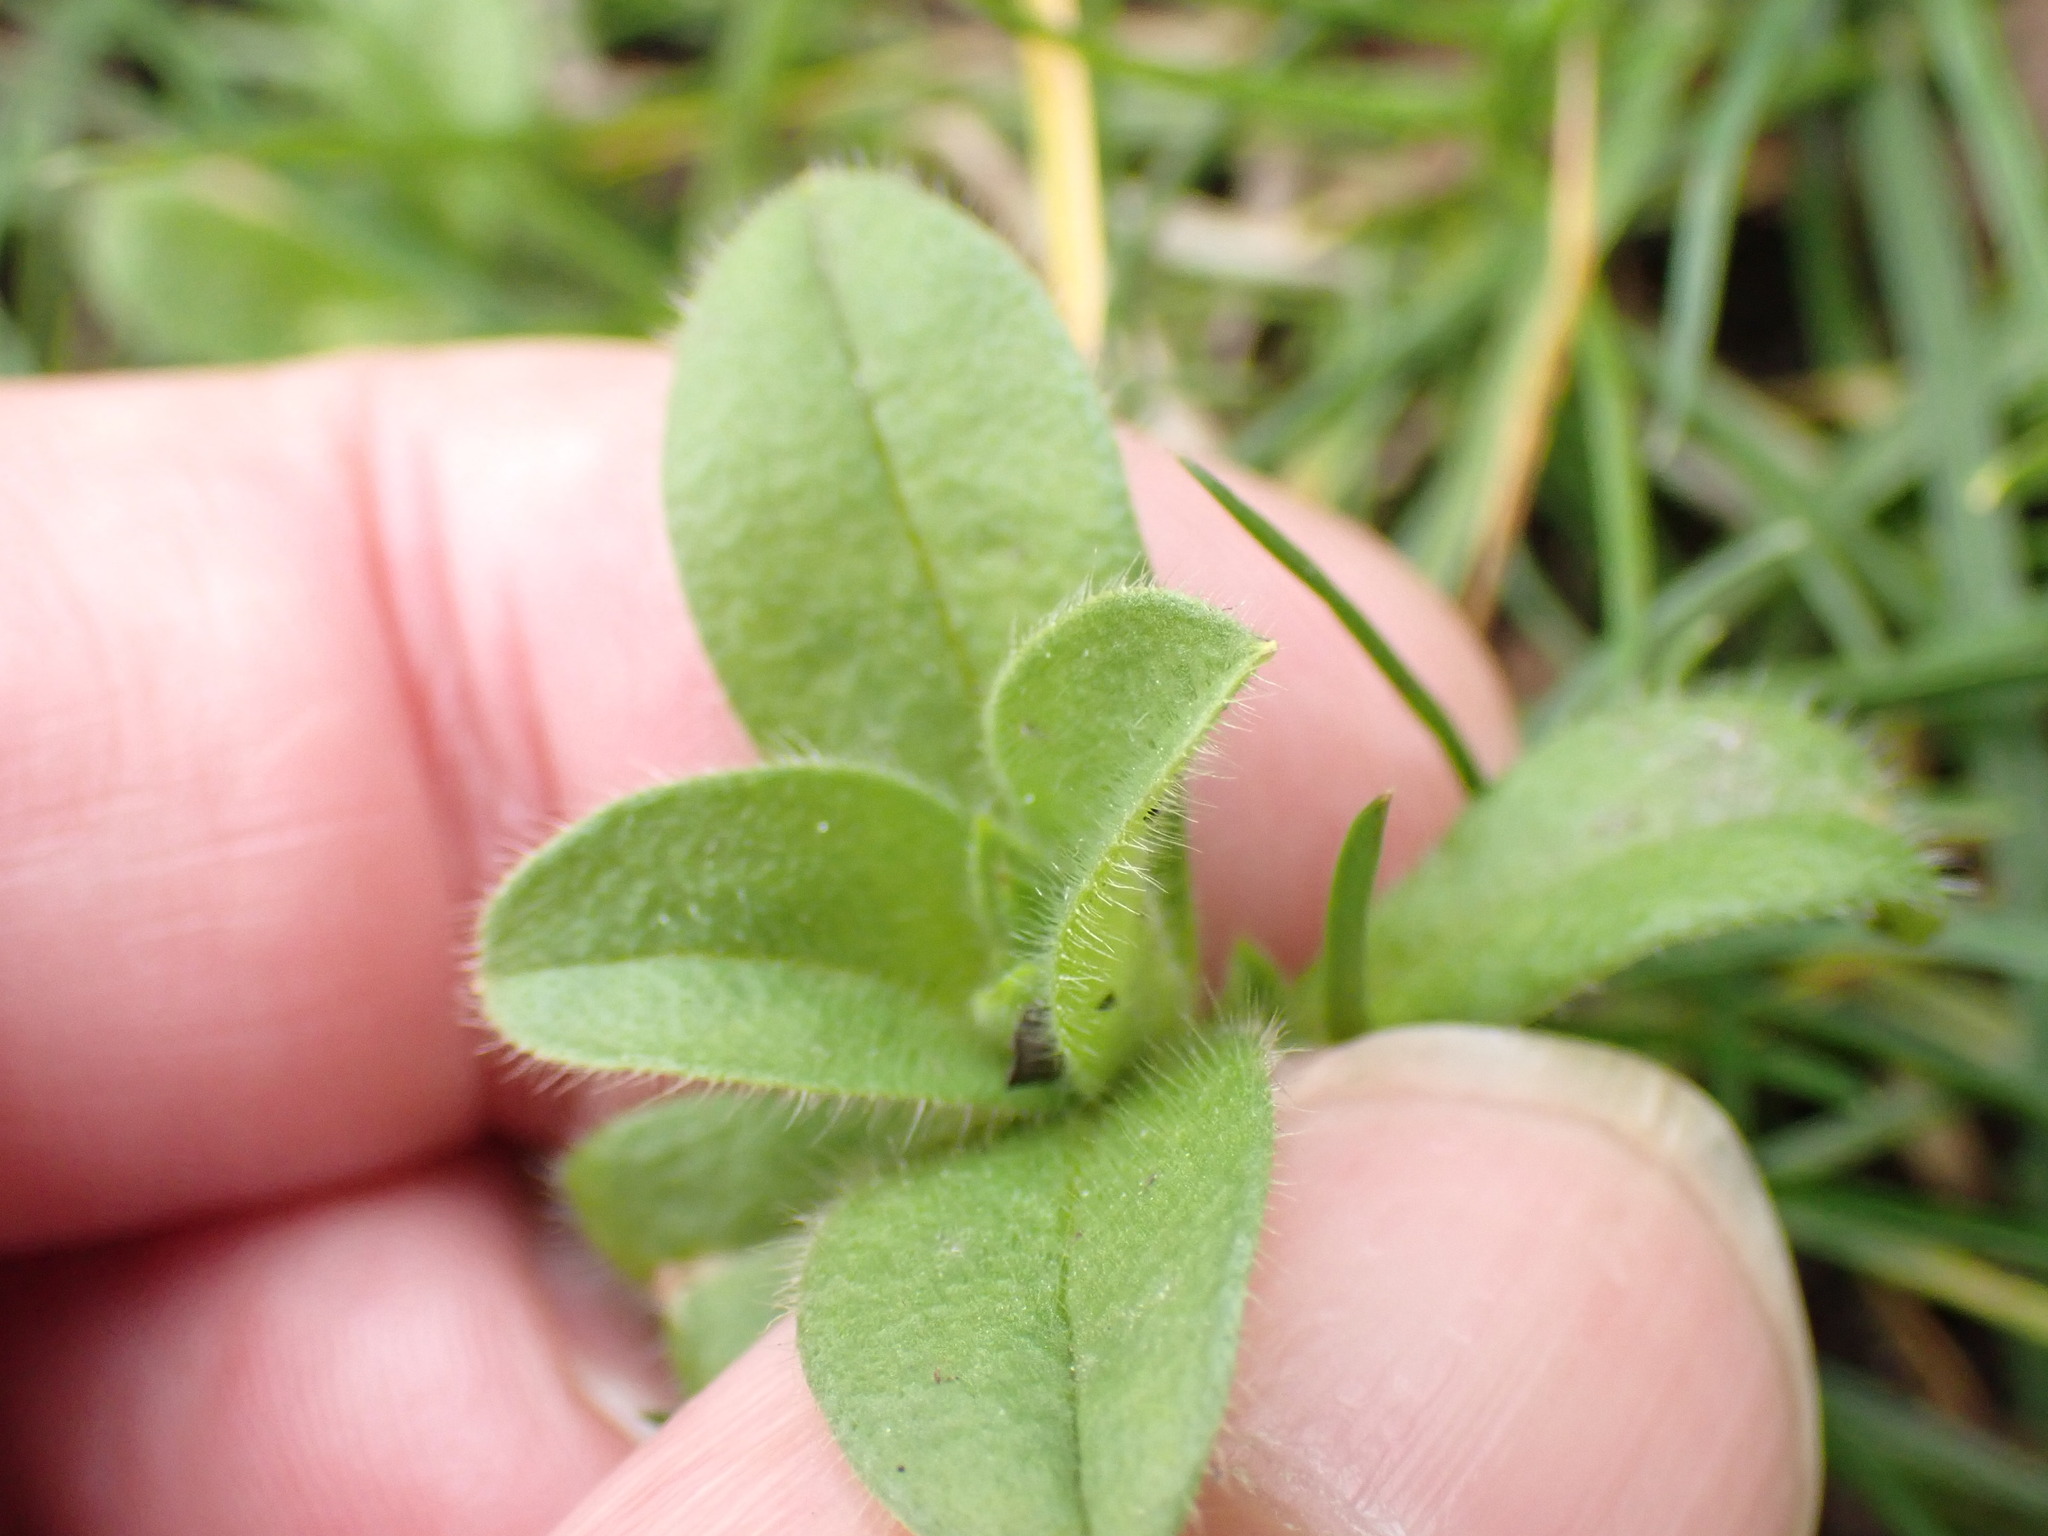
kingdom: Plantae
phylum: Tracheophyta
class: Magnoliopsida
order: Caryophyllales
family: Caryophyllaceae
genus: Cerastium
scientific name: Cerastium glomeratum
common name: Sticky chickweed
